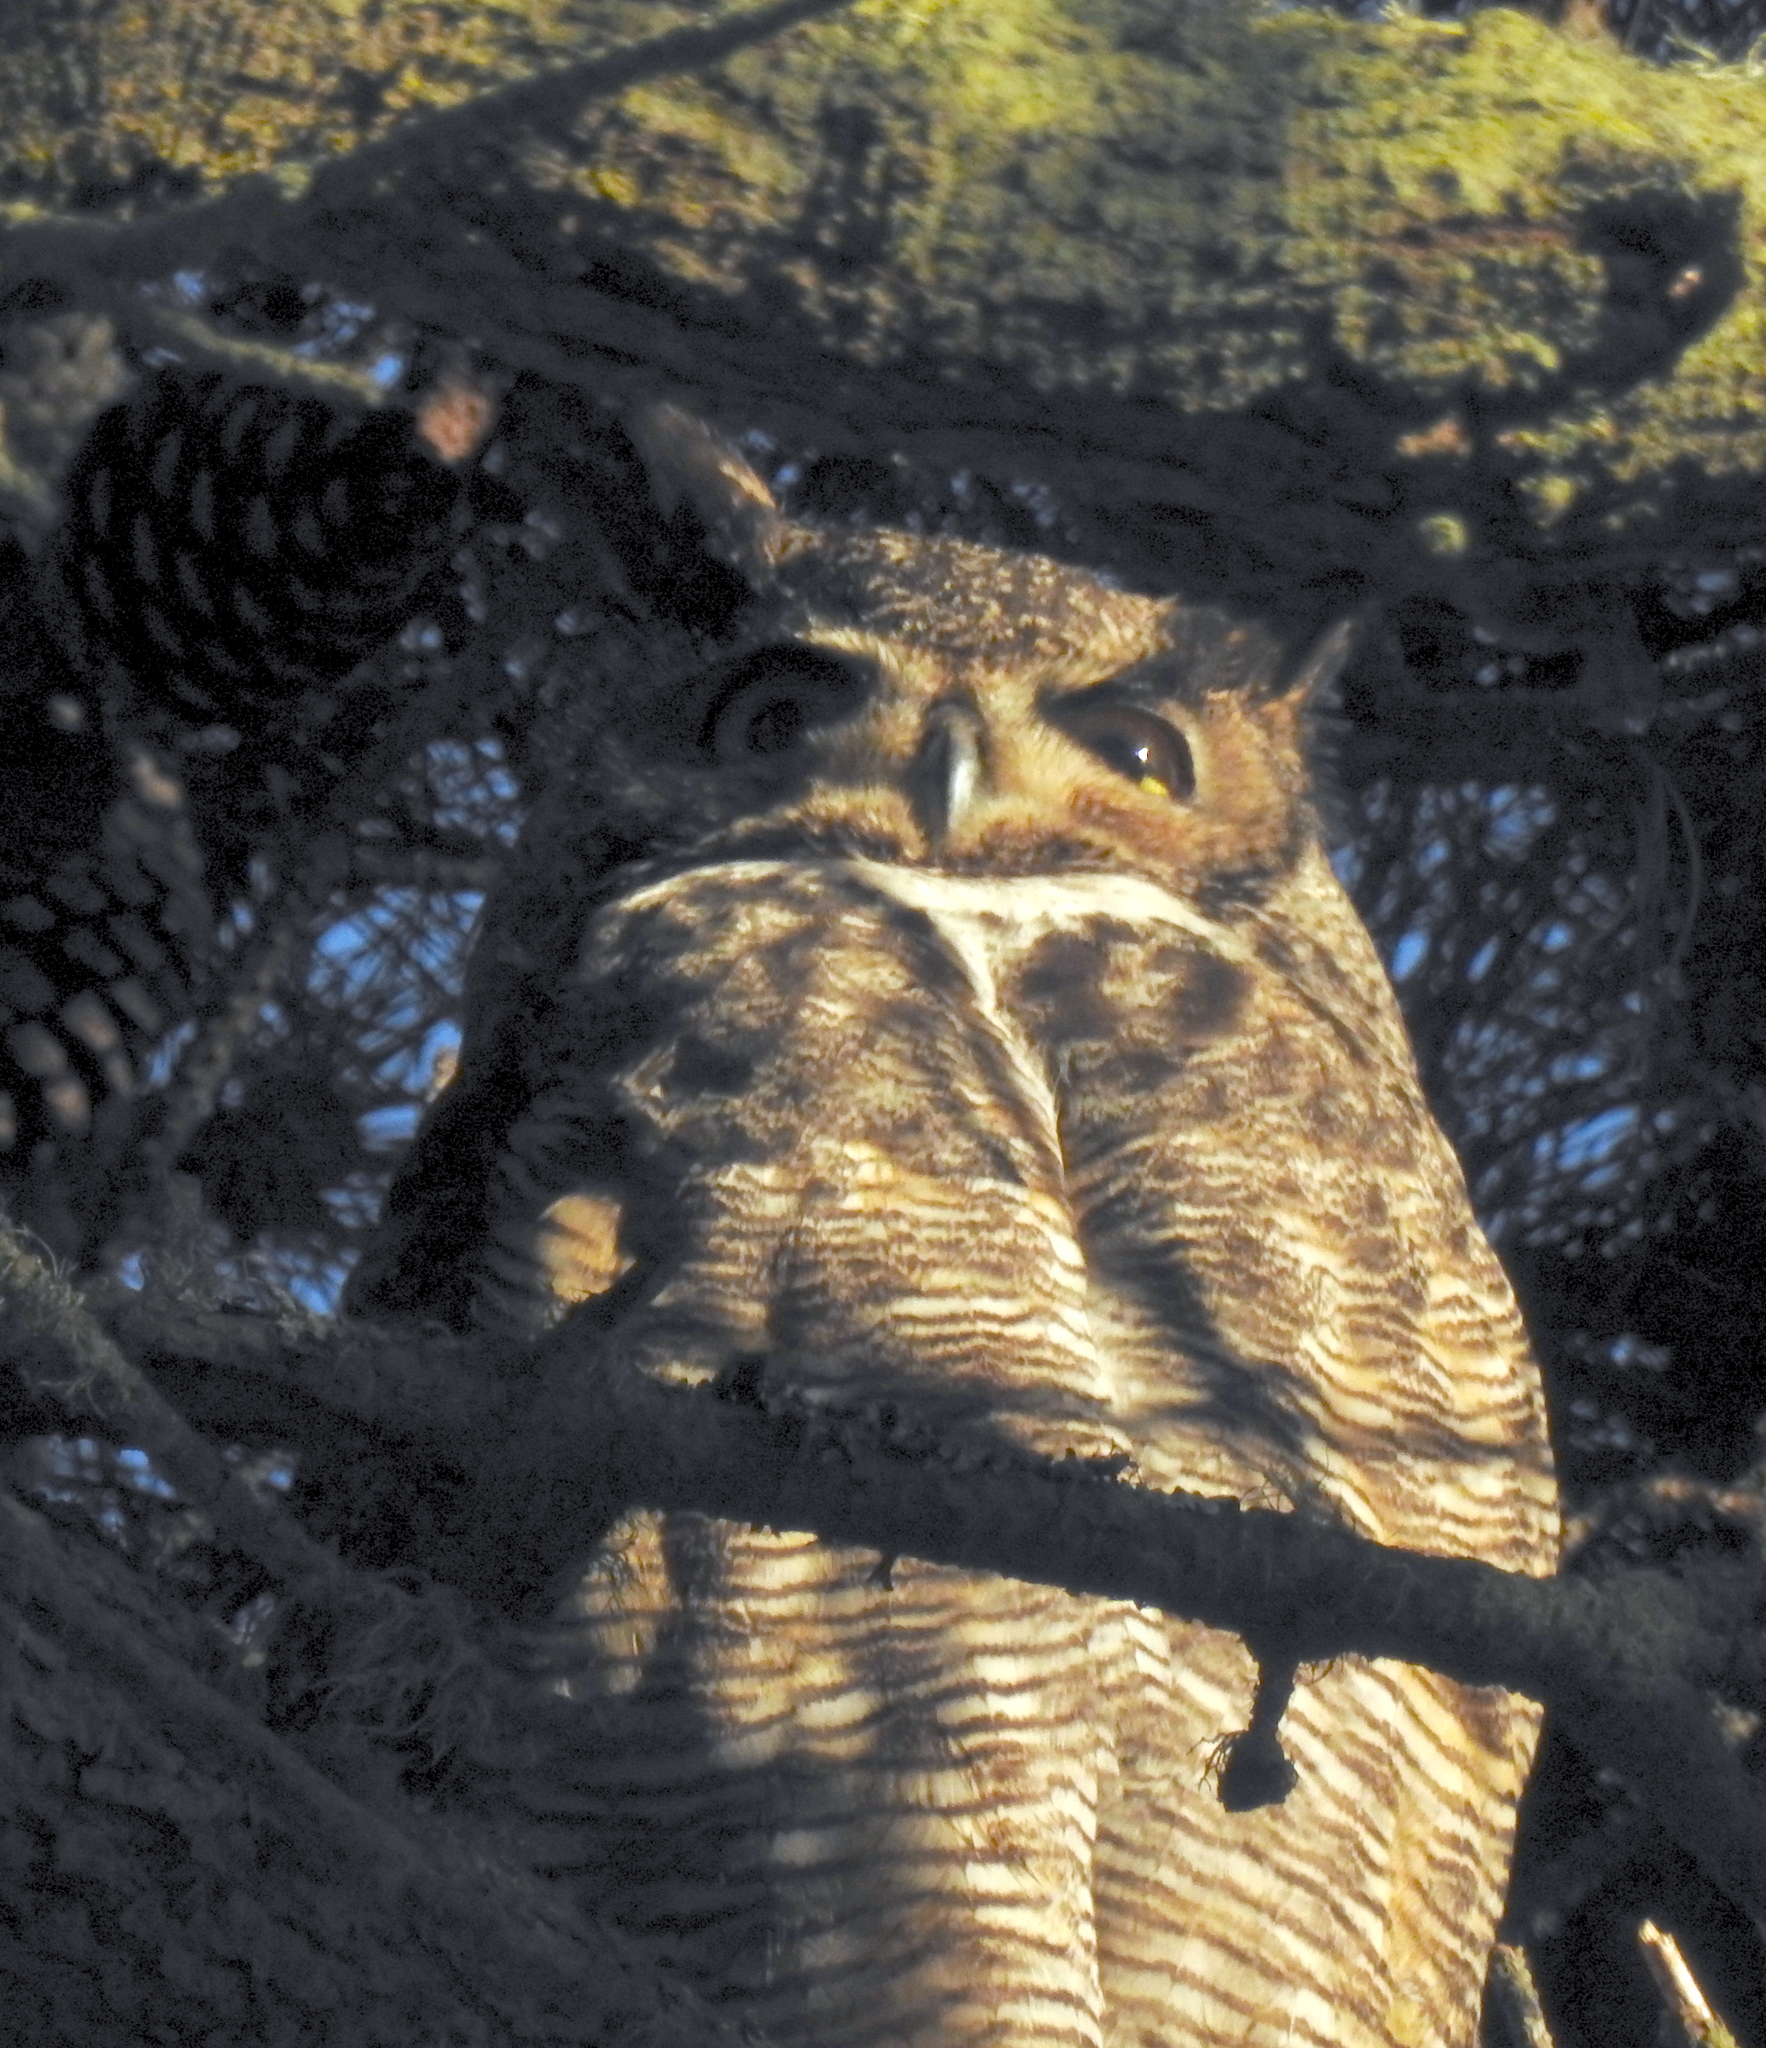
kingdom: Animalia
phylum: Chordata
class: Aves
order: Strigiformes
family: Strigidae
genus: Bubo
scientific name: Bubo virginianus
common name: Great horned owl
